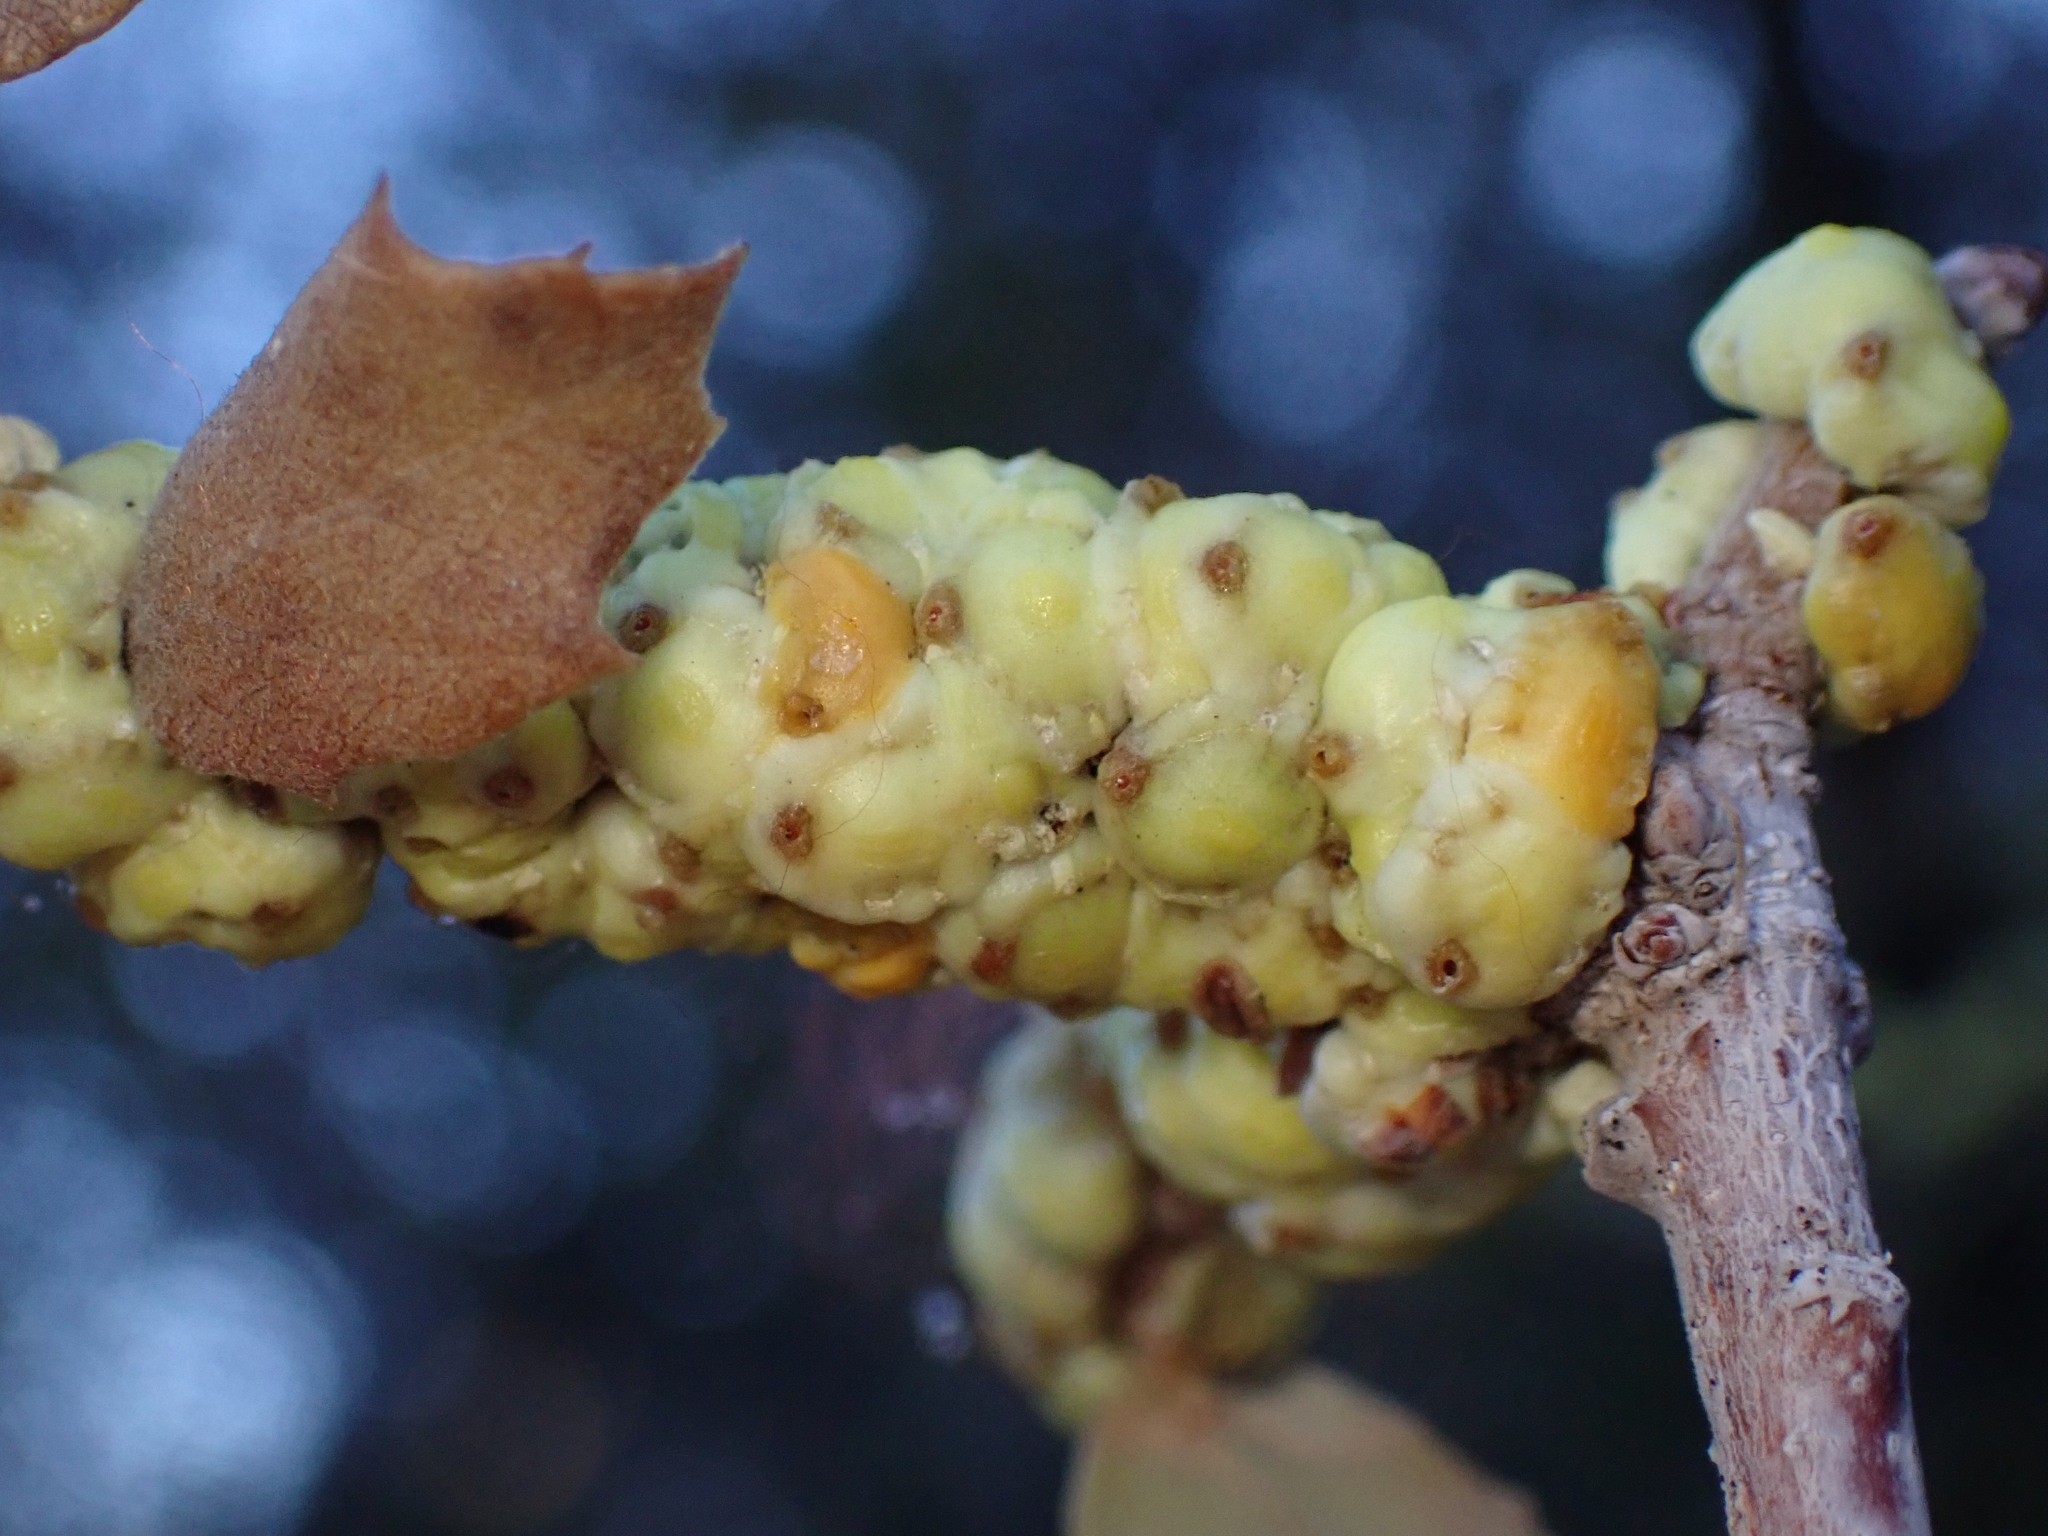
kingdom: Animalia
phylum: Arthropoda
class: Insecta
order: Hemiptera
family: Cerococcidae
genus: Cerococcus
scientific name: Cerococcus quercus
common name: Oak cerococcus
